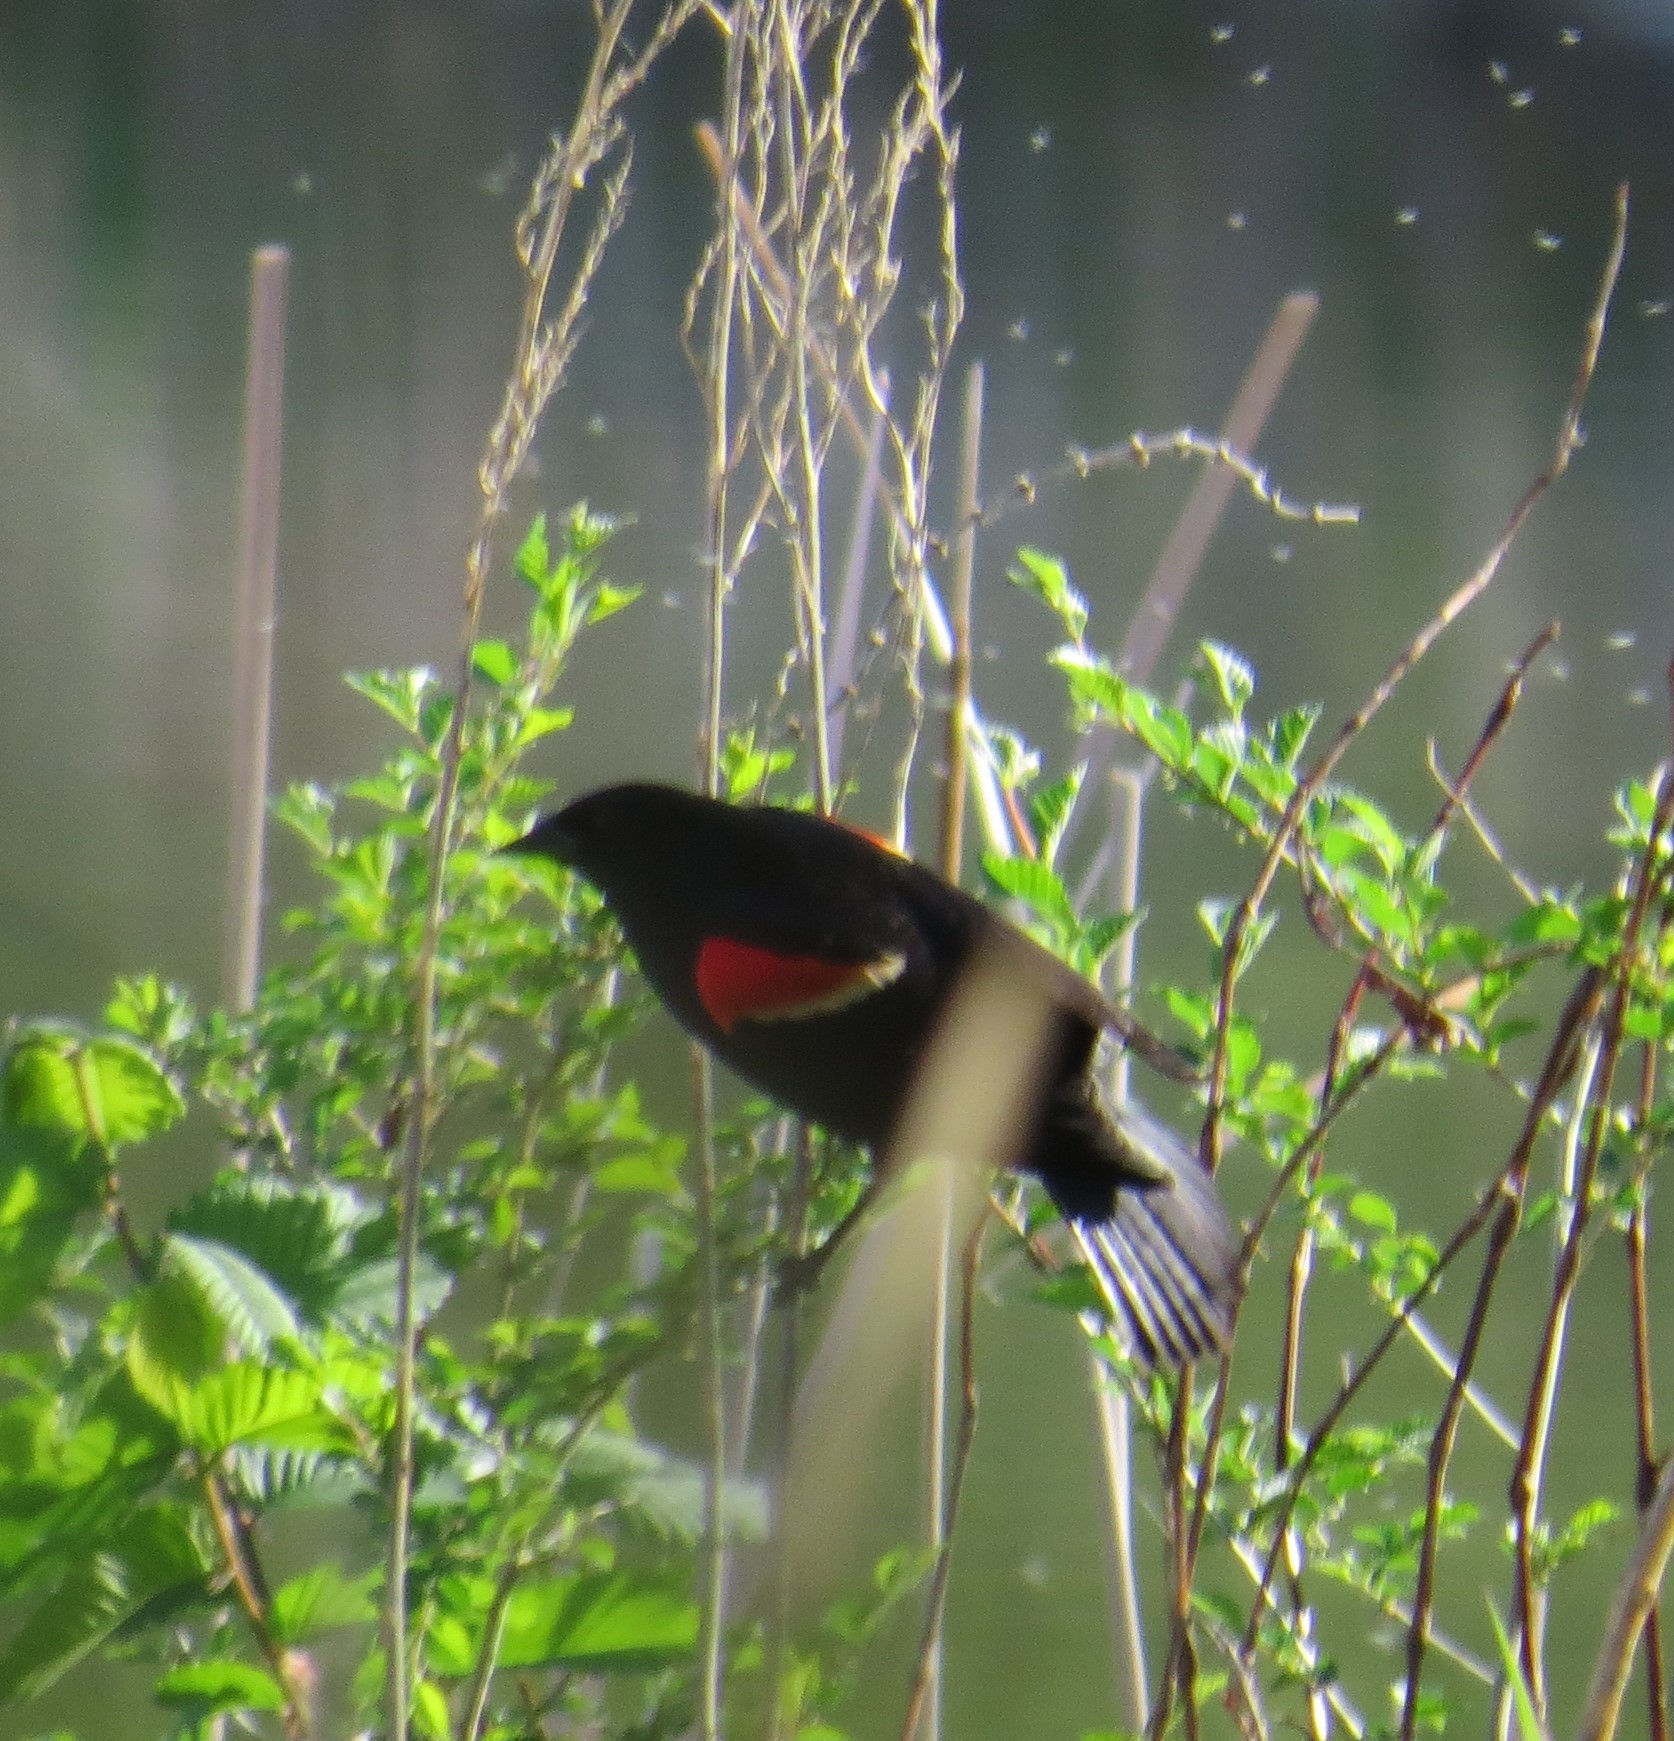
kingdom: Animalia
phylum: Chordata
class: Aves
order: Passeriformes
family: Icteridae
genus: Agelaius
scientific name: Agelaius phoeniceus
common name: Red-winged blackbird
